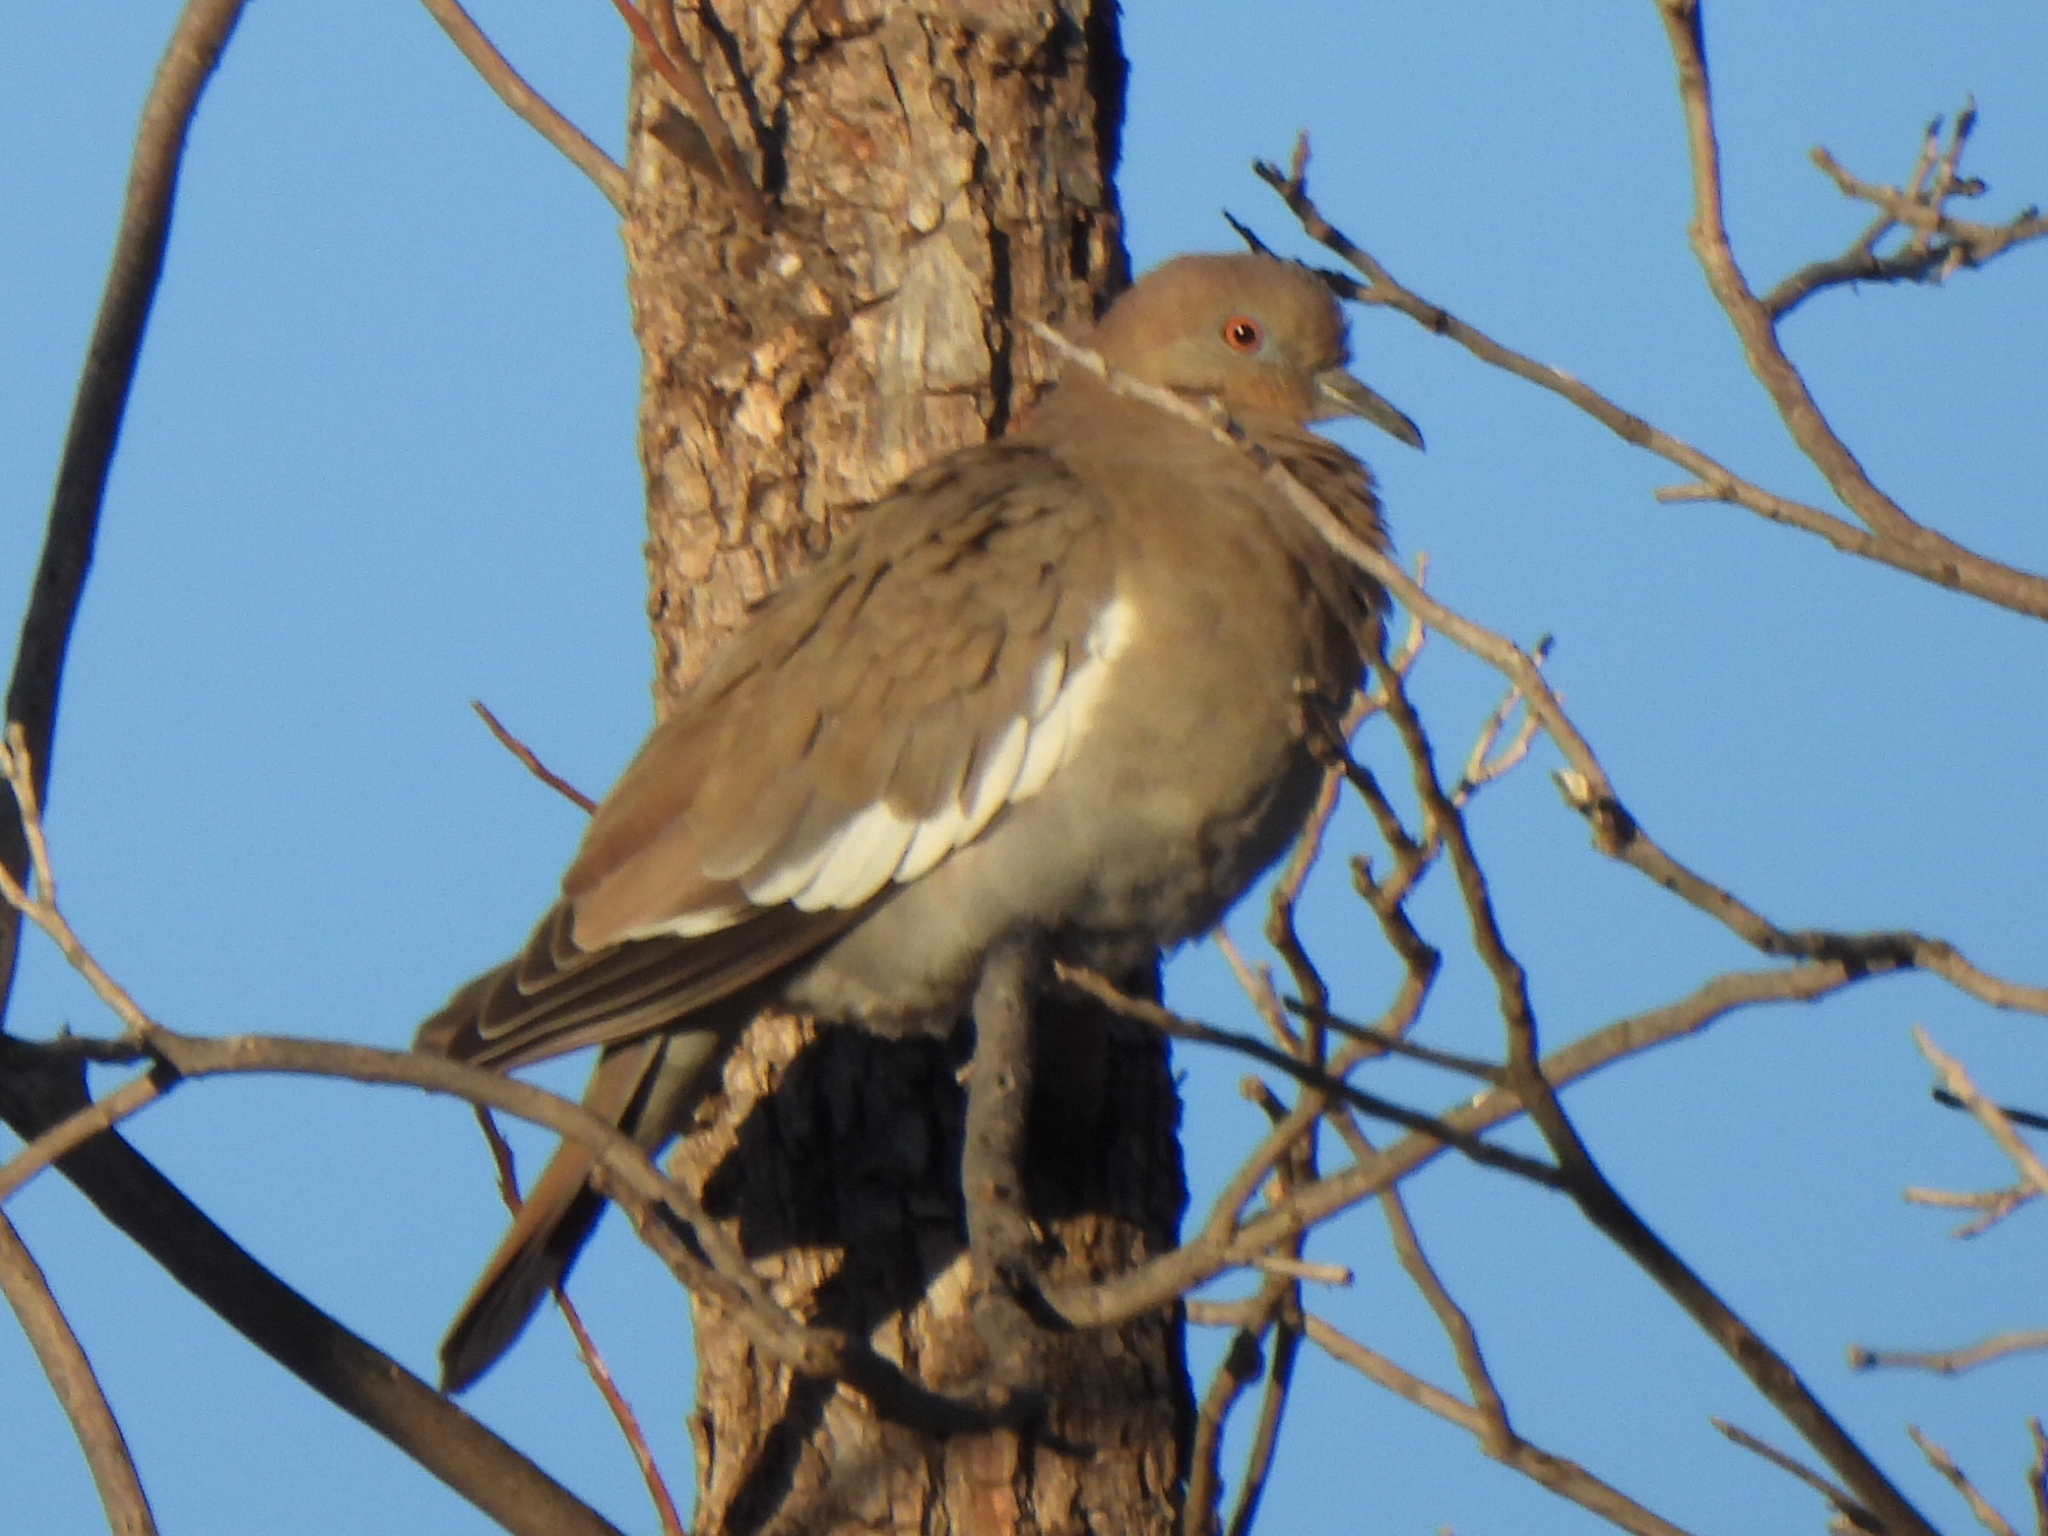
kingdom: Animalia
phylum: Chordata
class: Aves
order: Columbiformes
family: Columbidae
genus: Zenaida
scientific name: Zenaida asiatica
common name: White-winged dove
